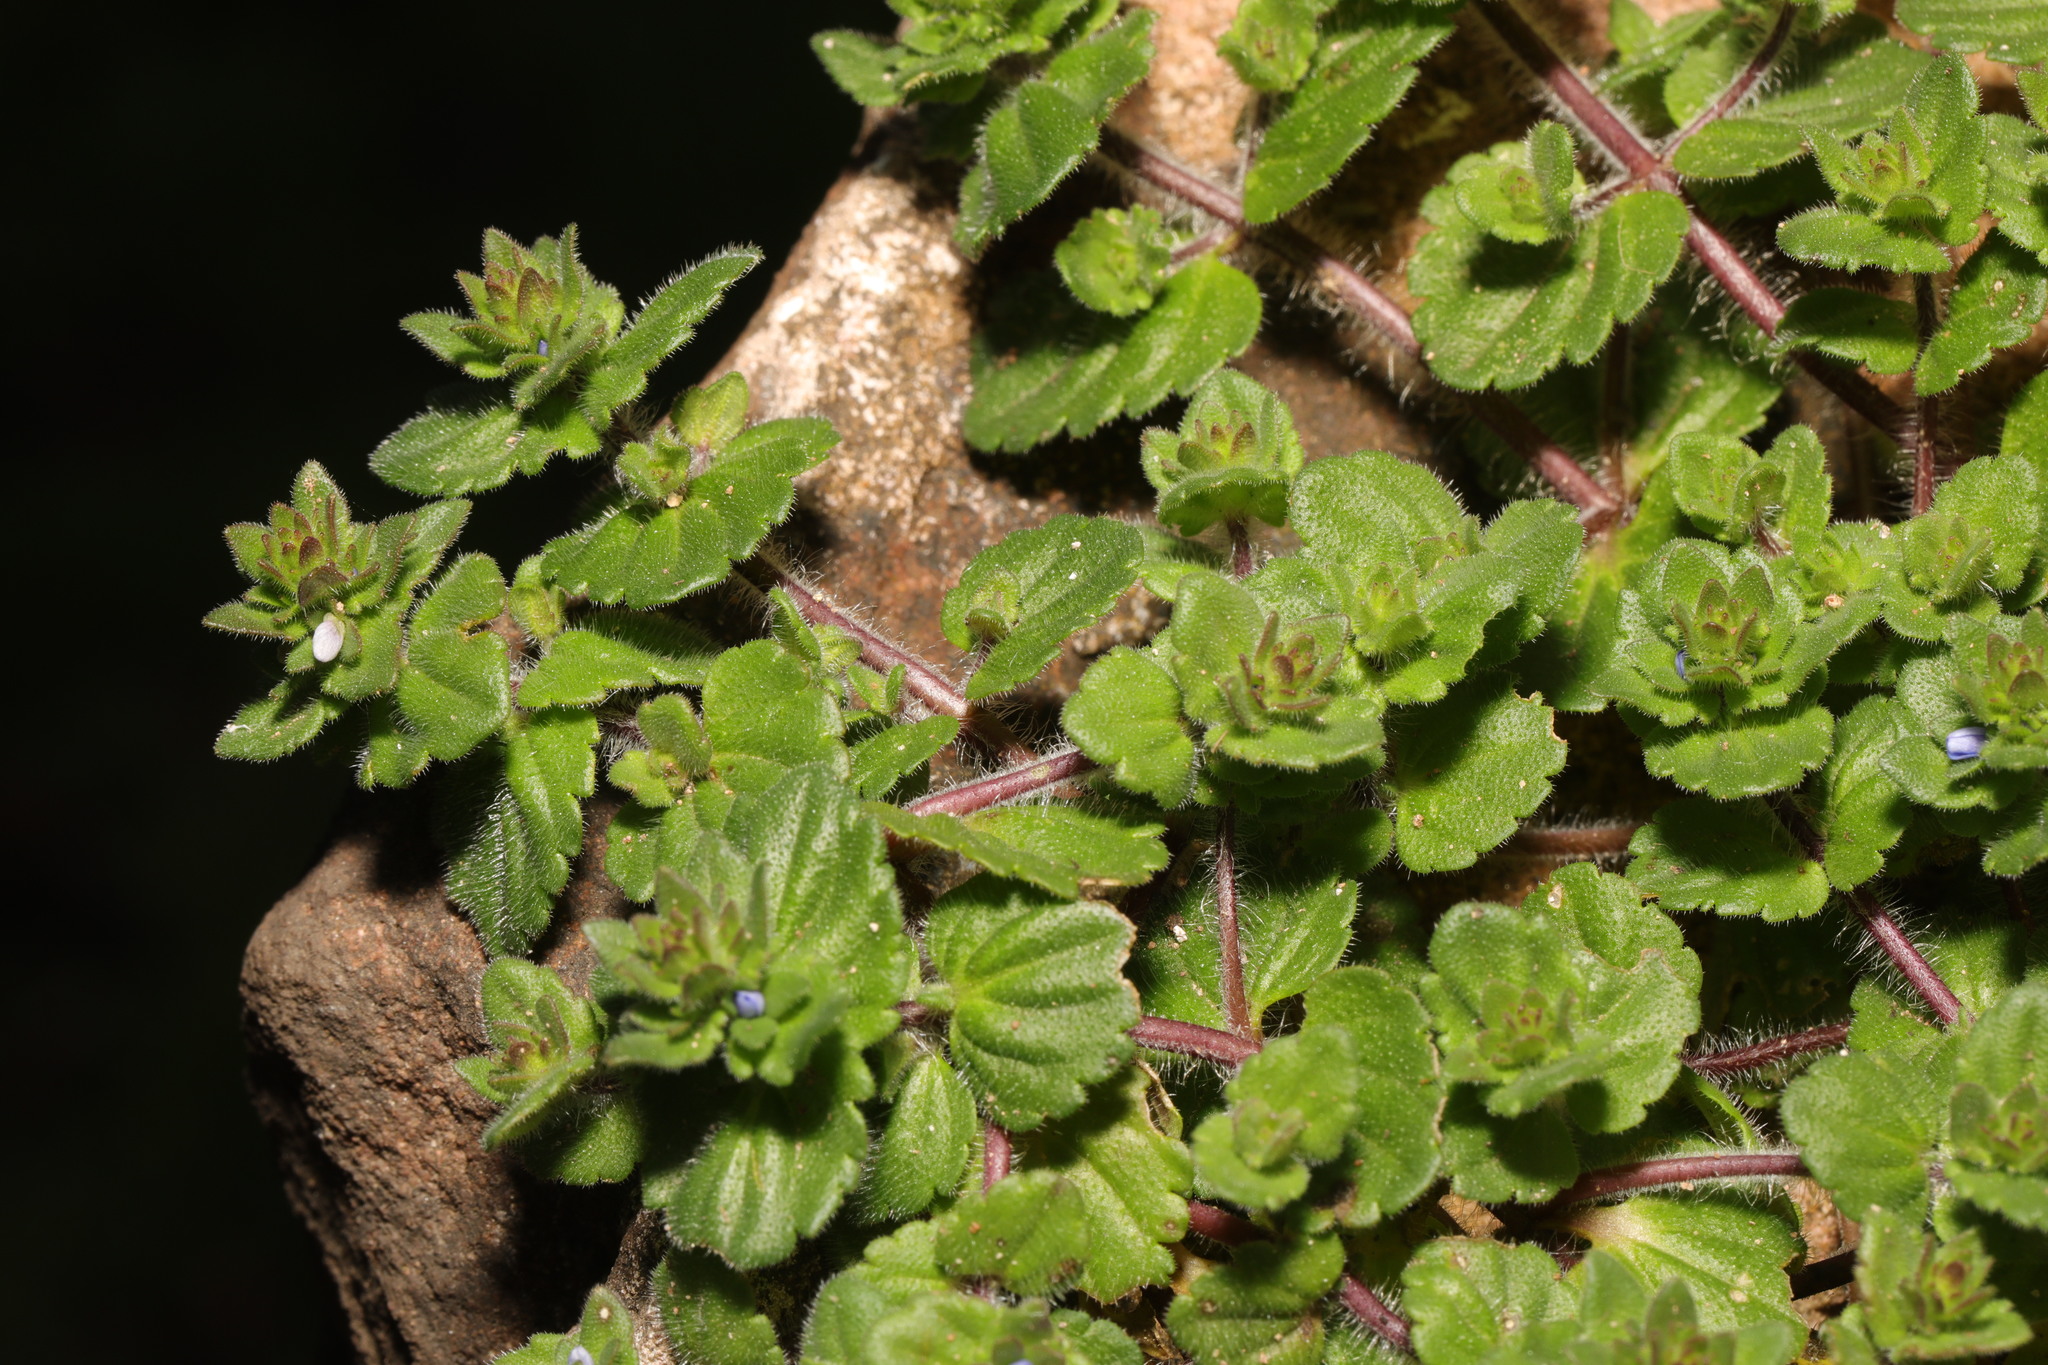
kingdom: Plantae
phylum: Tracheophyta
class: Magnoliopsida
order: Lamiales
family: Plantaginaceae
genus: Veronica
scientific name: Veronica arvensis
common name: Corn speedwell
